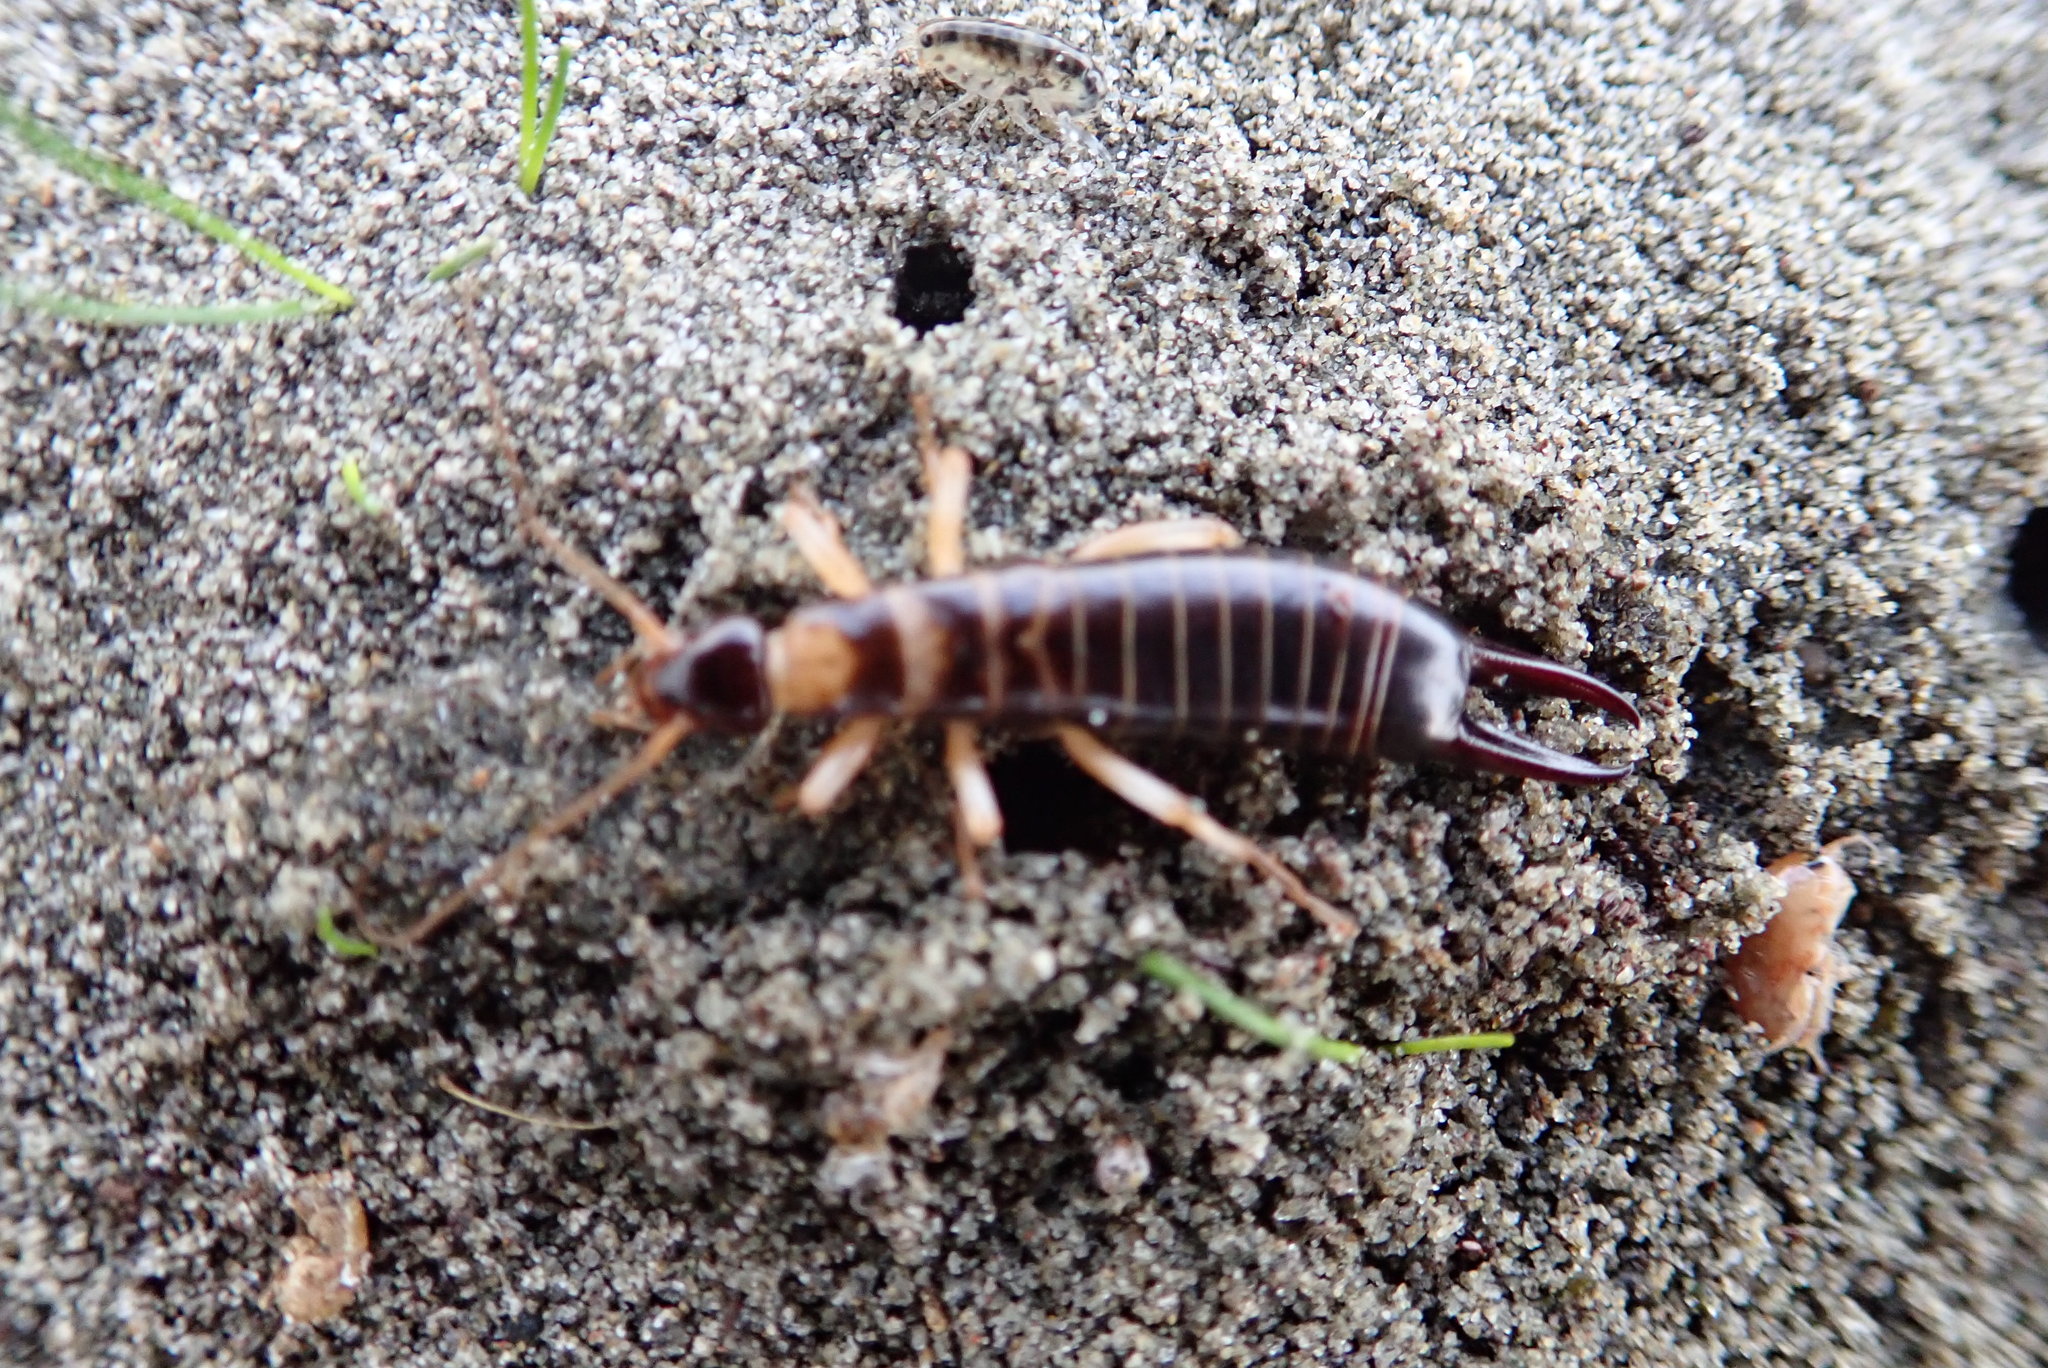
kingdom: Animalia
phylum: Arthropoda
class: Insecta
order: Dermaptera
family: Anisolabididae
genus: Anisolabis
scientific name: Anisolabis littorea
